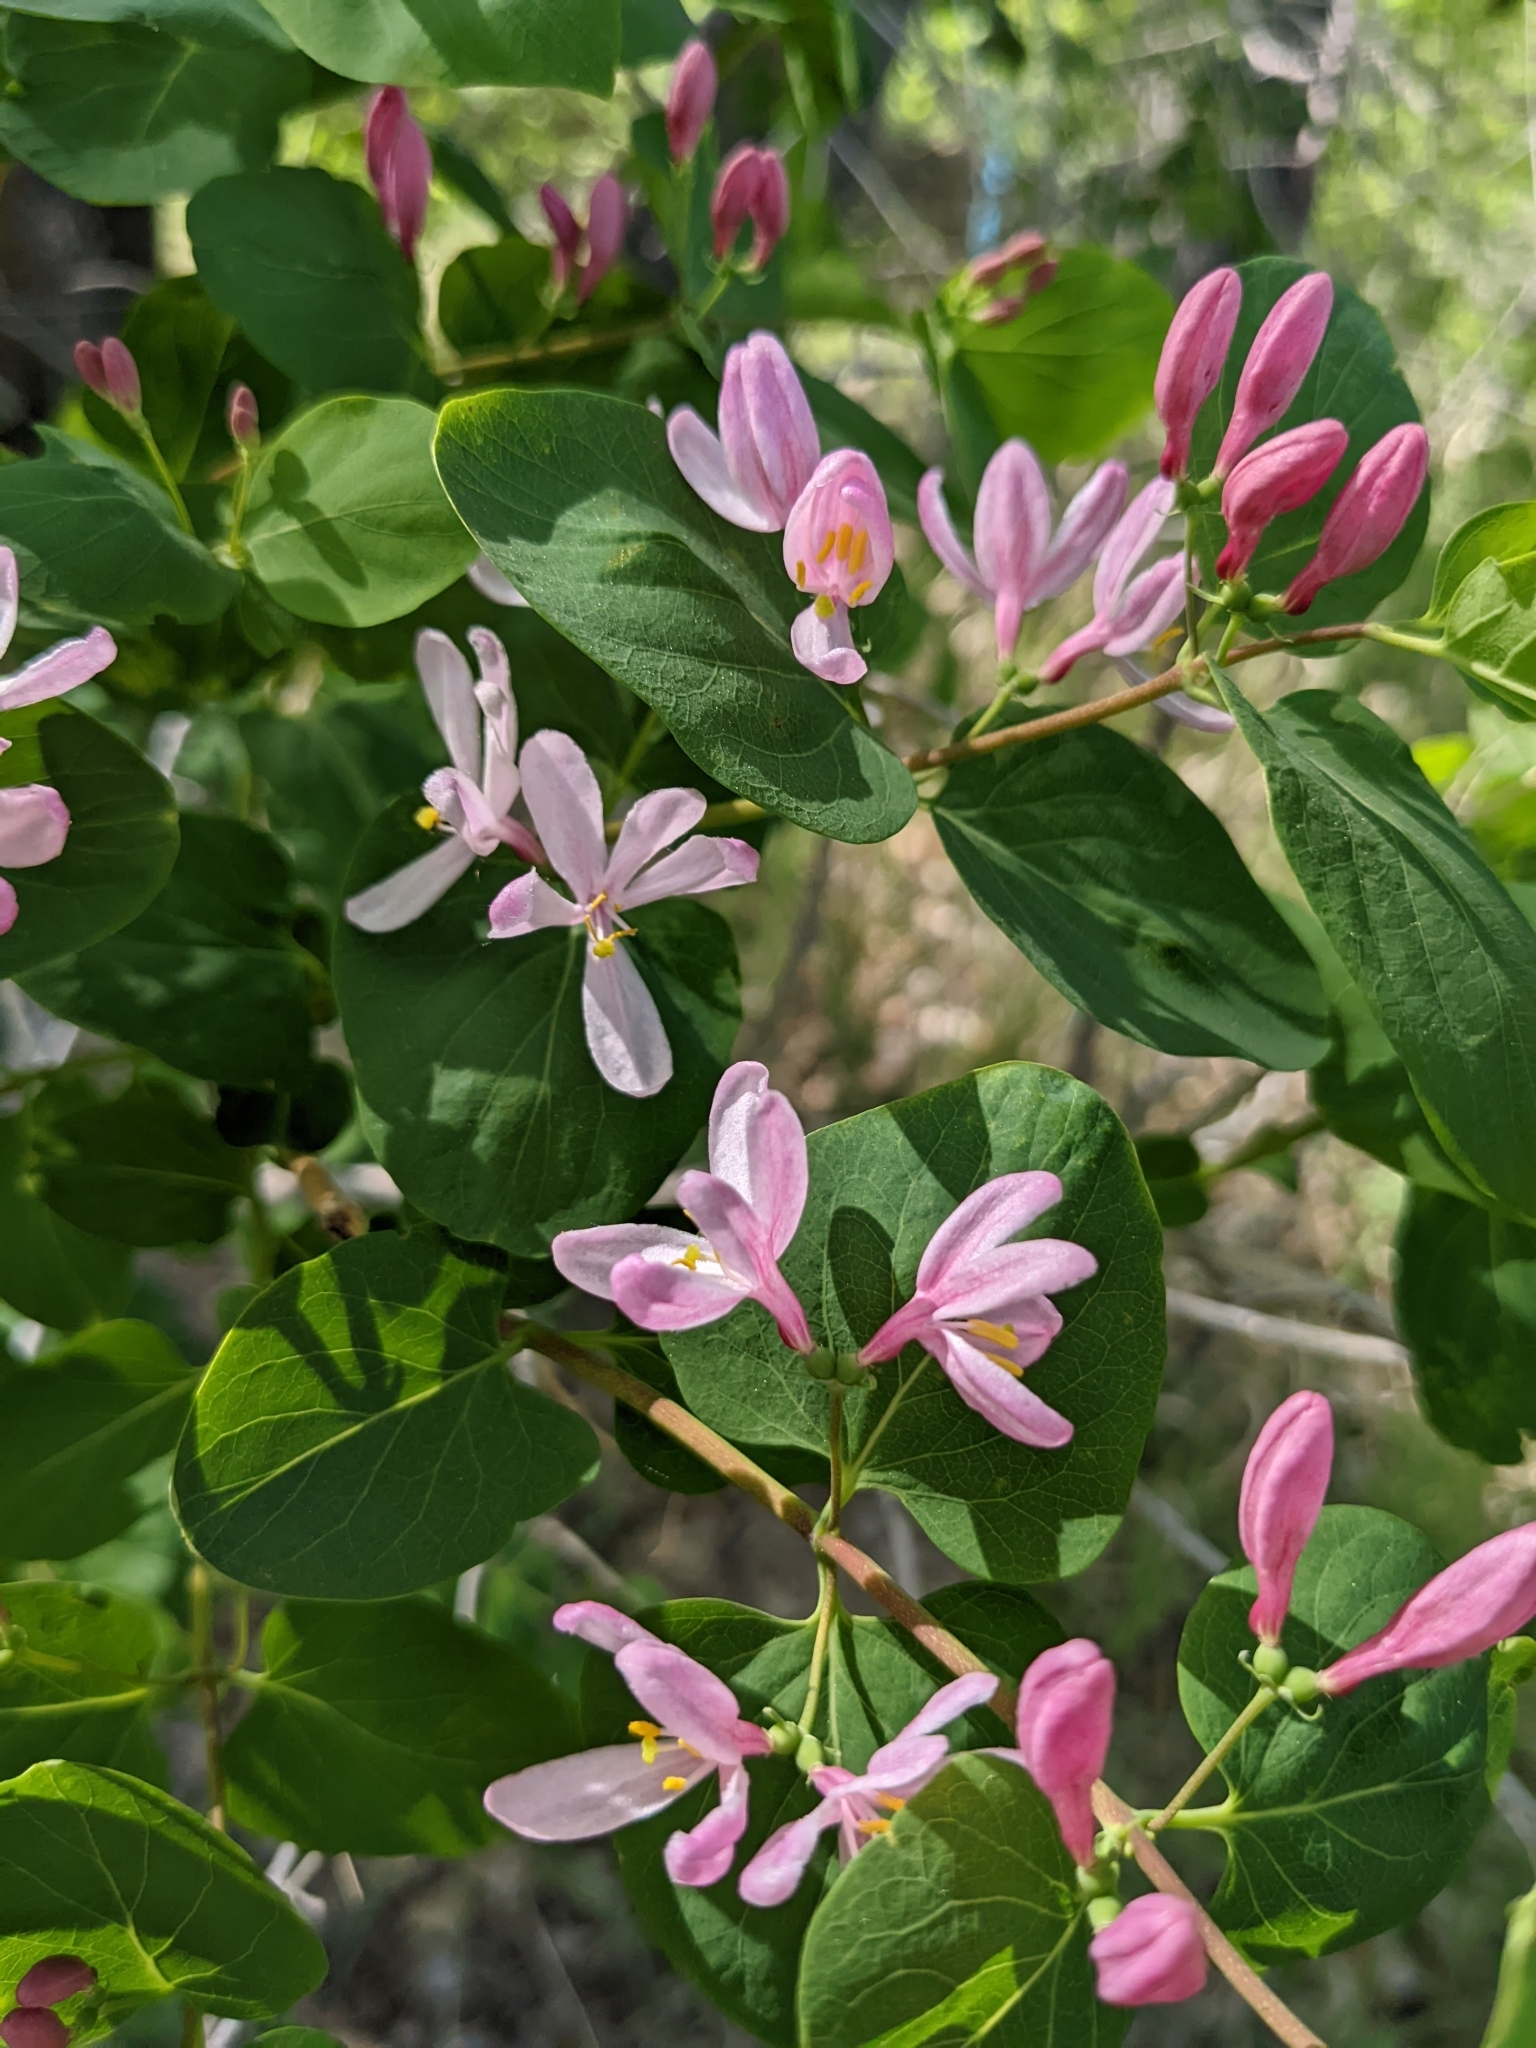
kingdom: Plantae
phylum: Tracheophyta
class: Magnoliopsida
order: Dipsacales
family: Caprifoliaceae
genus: Lonicera
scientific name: Lonicera tatarica
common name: Tatarian honeysuckle
